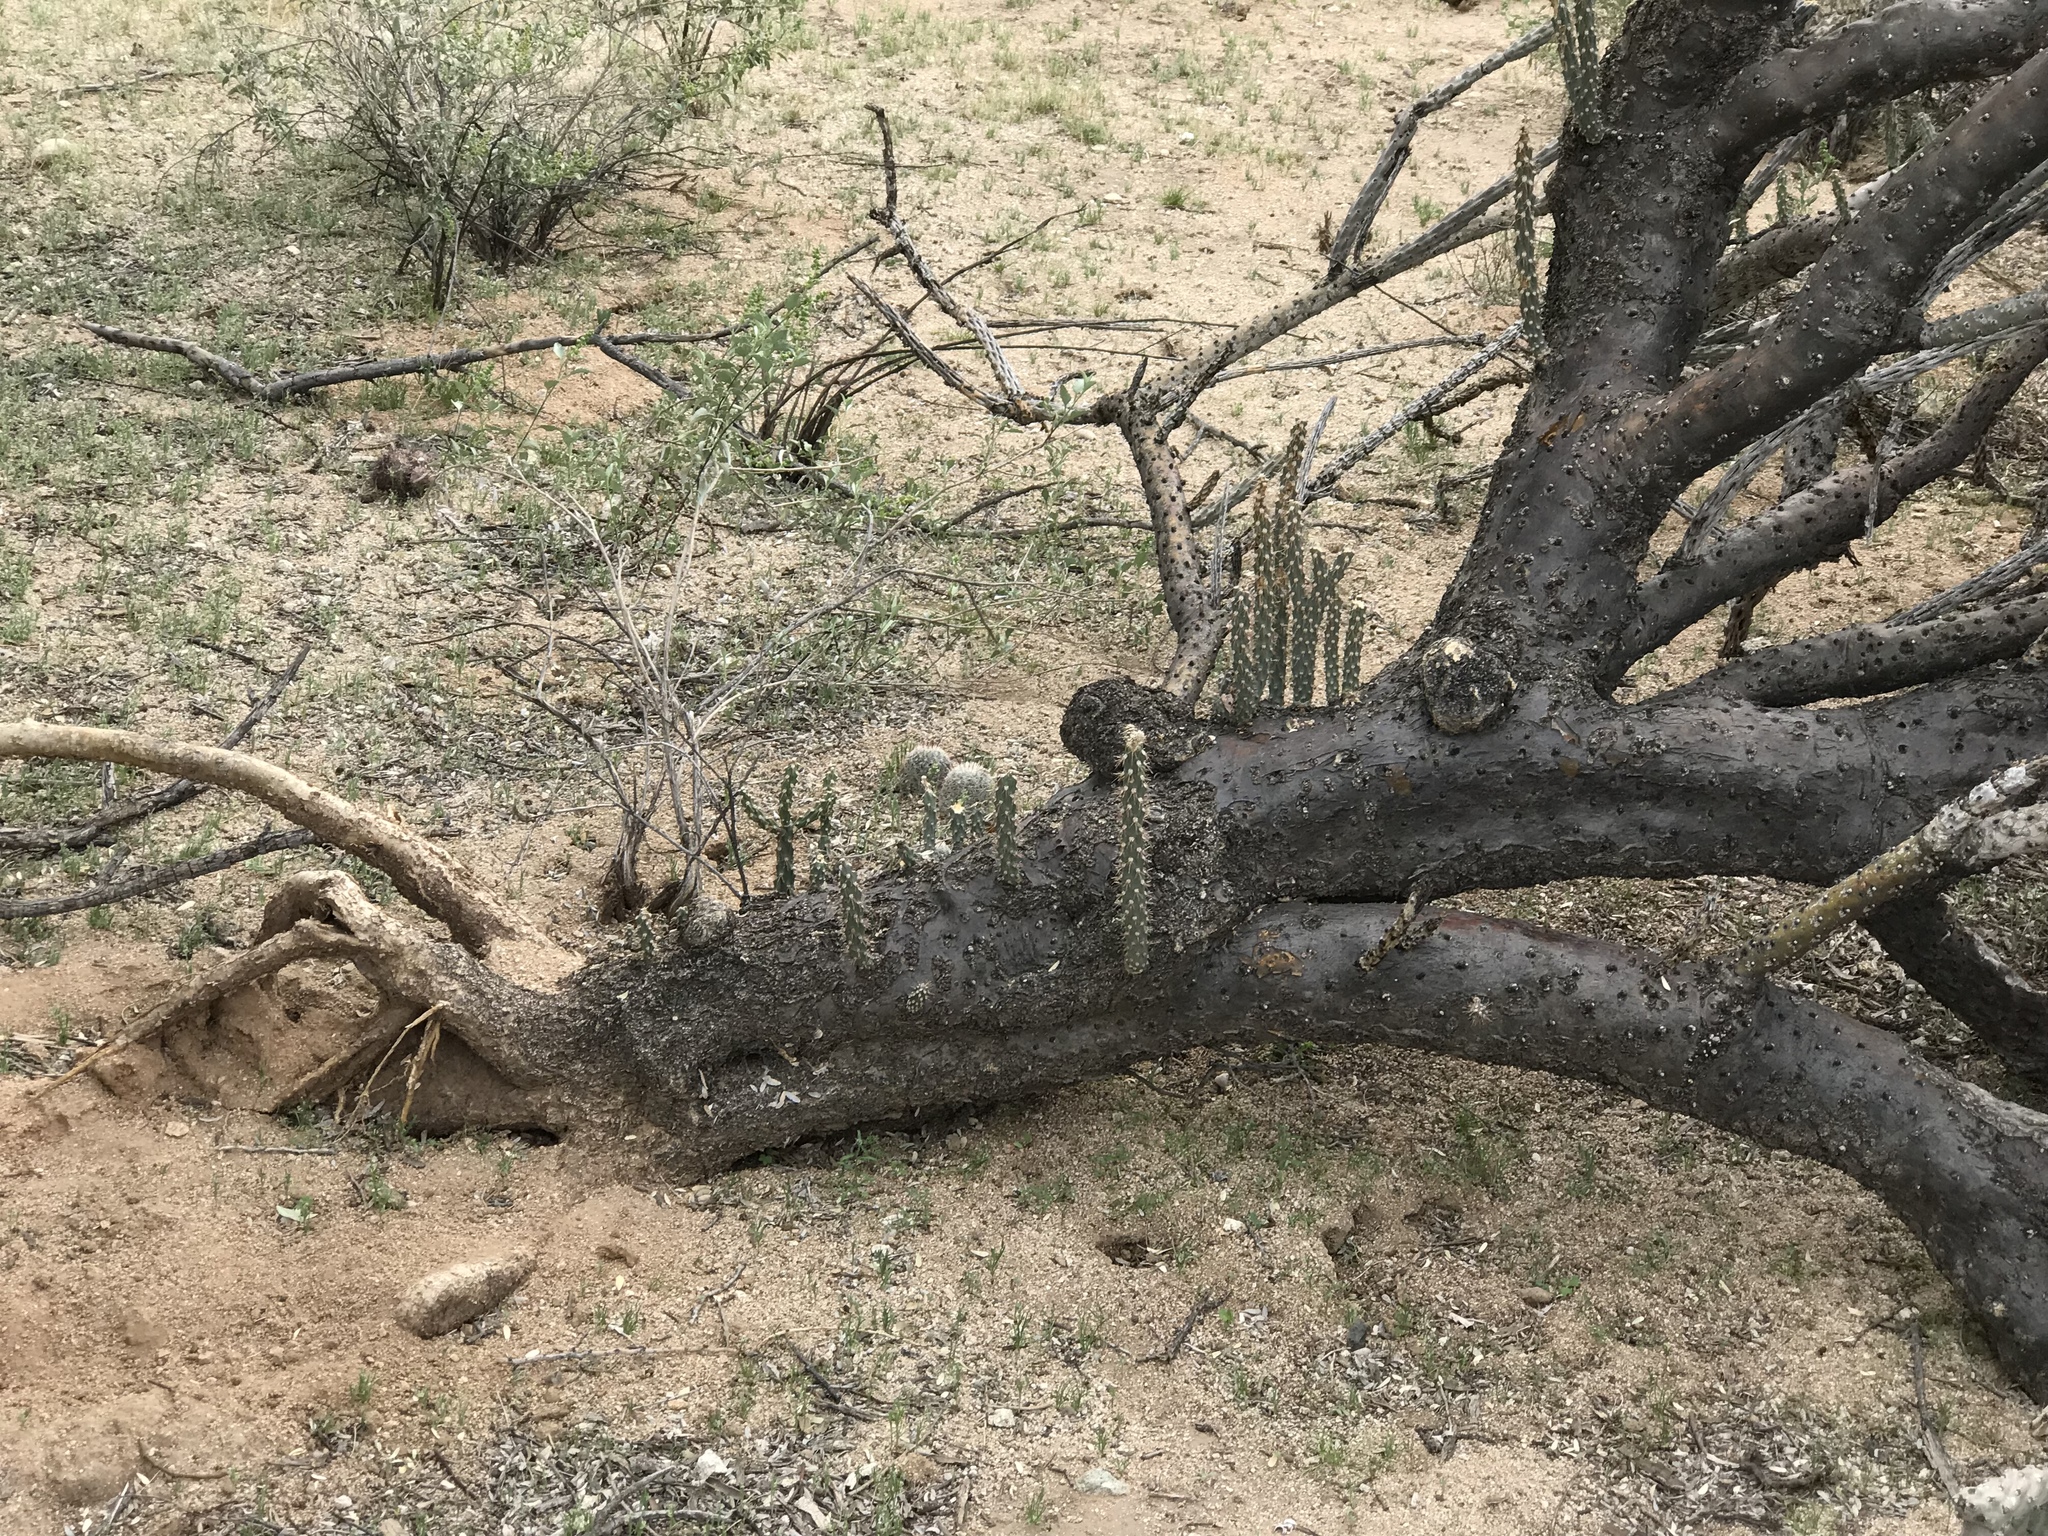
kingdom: Plantae
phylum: Tracheophyta
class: Magnoliopsida
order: Caryophyllales
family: Cactaceae
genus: Cylindropuntia
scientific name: Cylindropuntia thurberi
